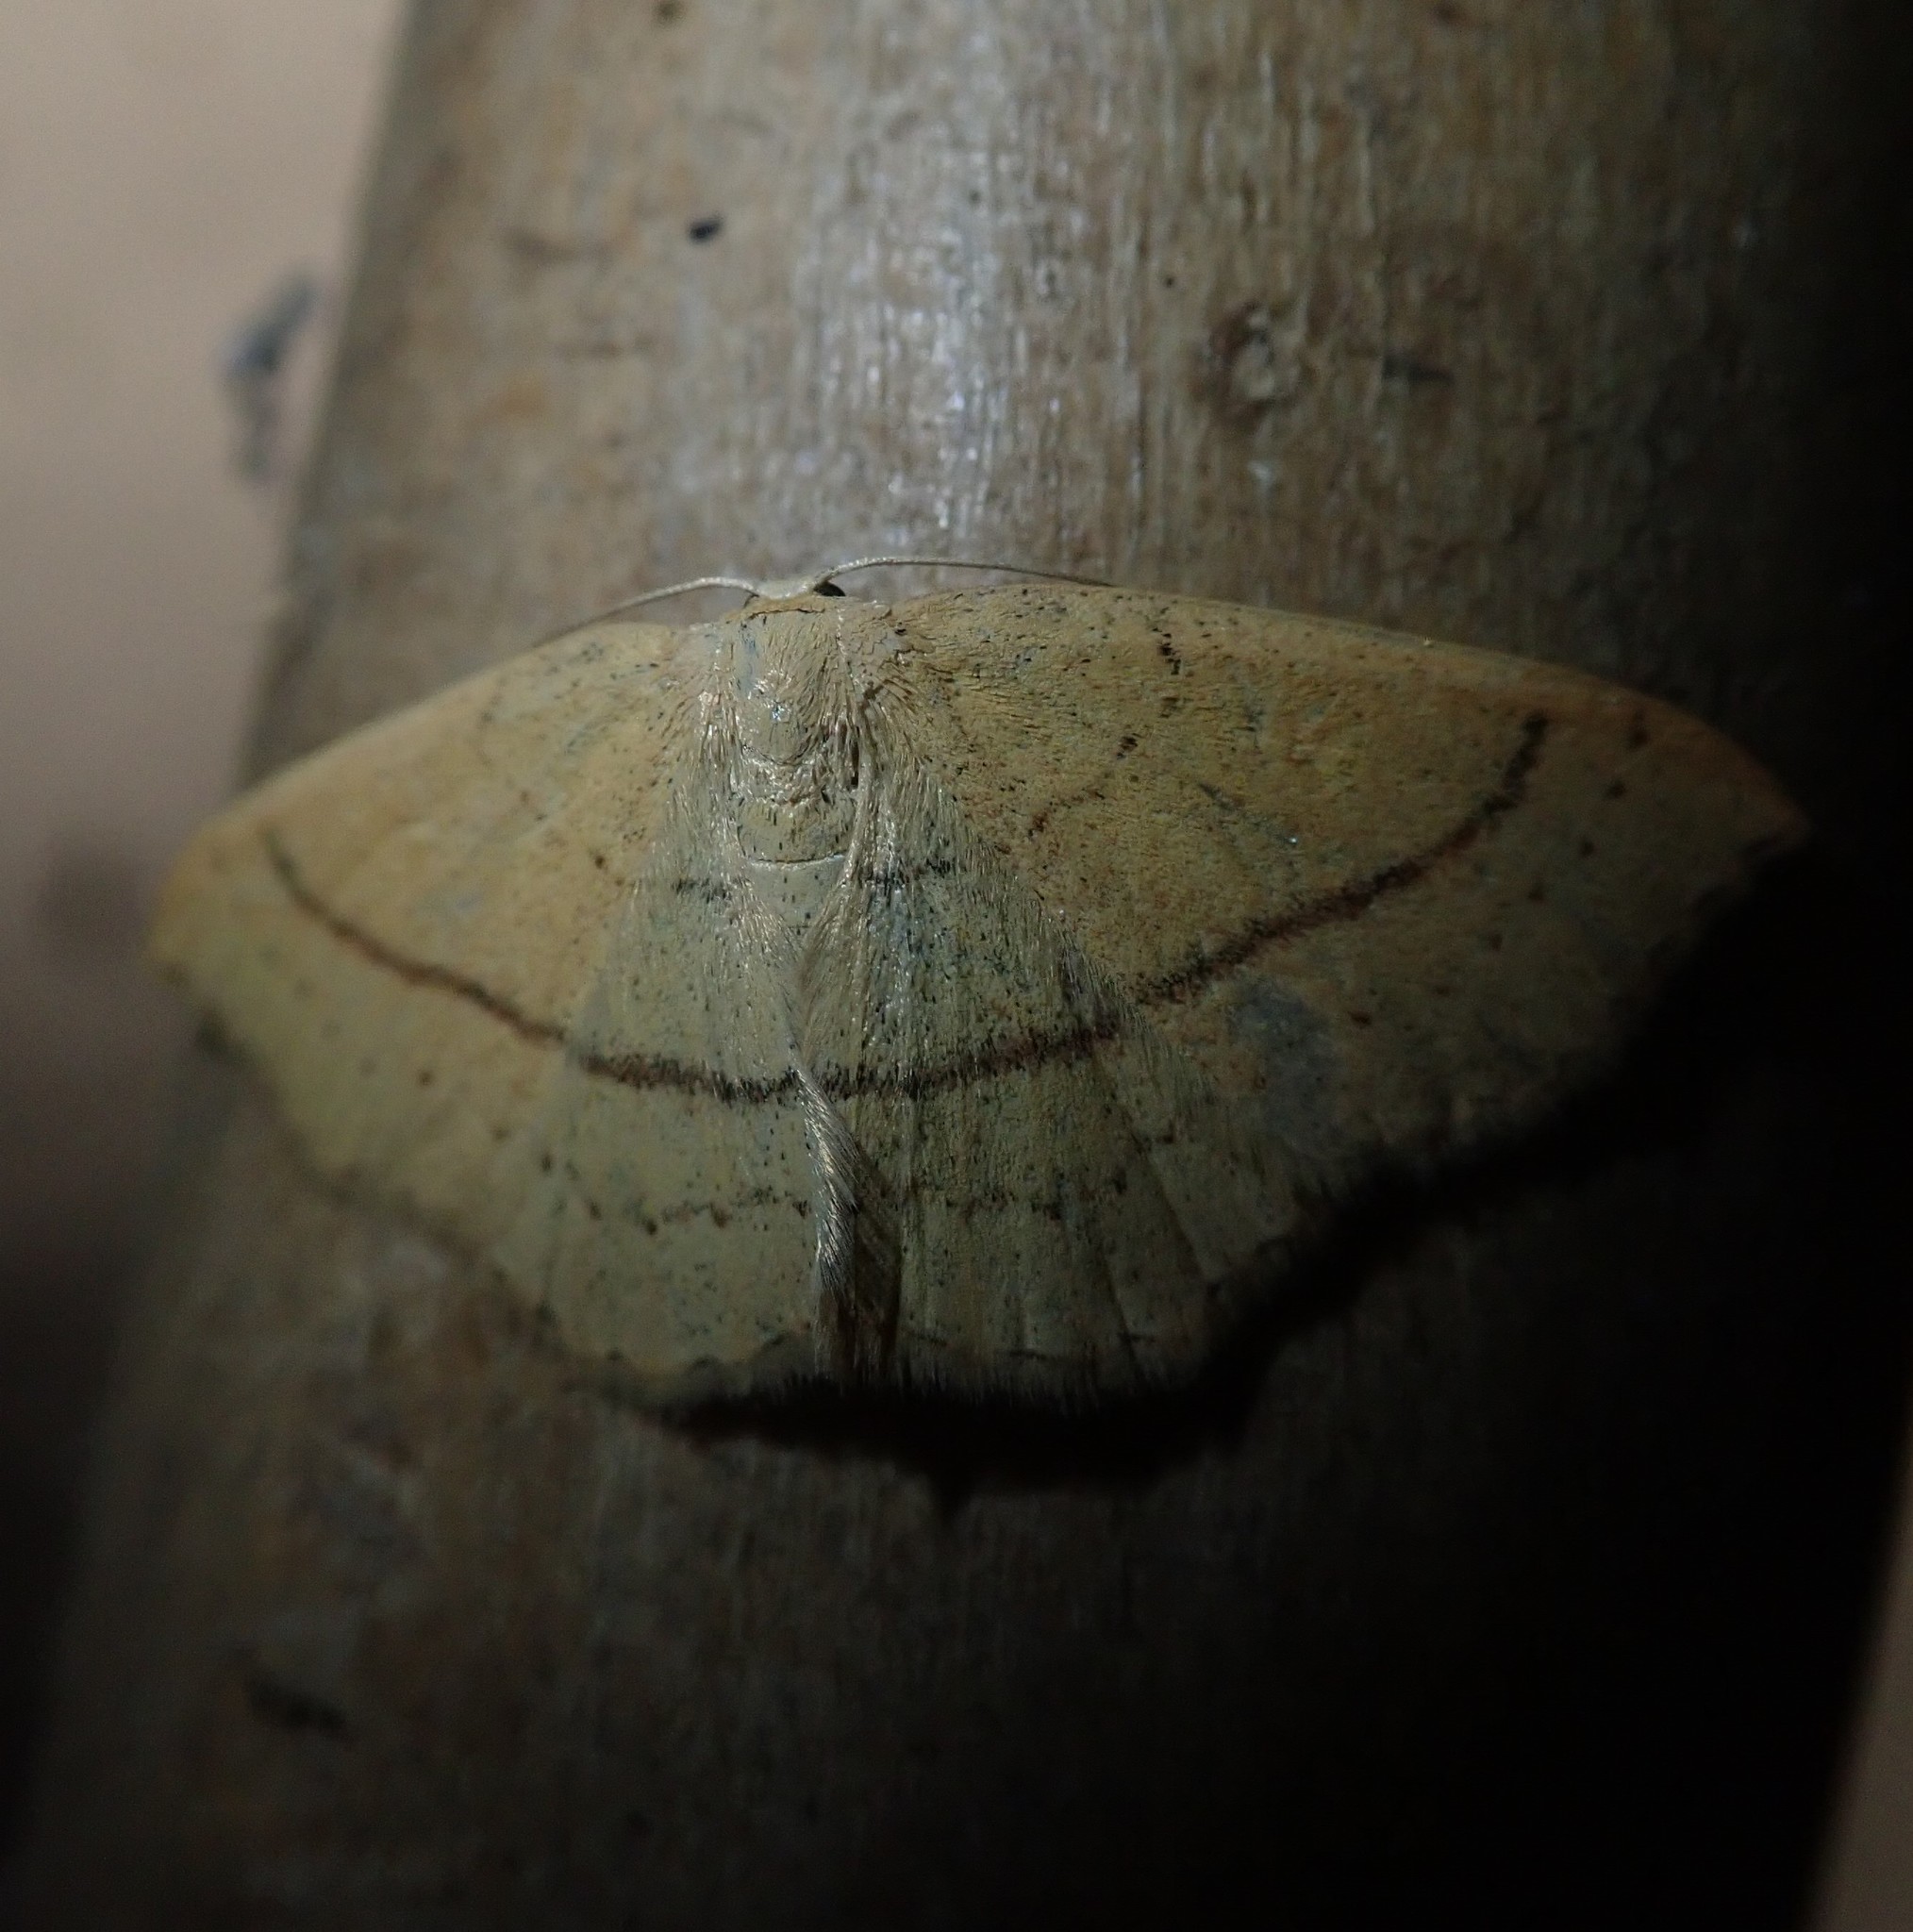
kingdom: Animalia
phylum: Arthropoda
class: Insecta
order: Lepidoptera
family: Geometridae
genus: Cyclophora
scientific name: Cyclophora linearia
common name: Clay triple-lines
